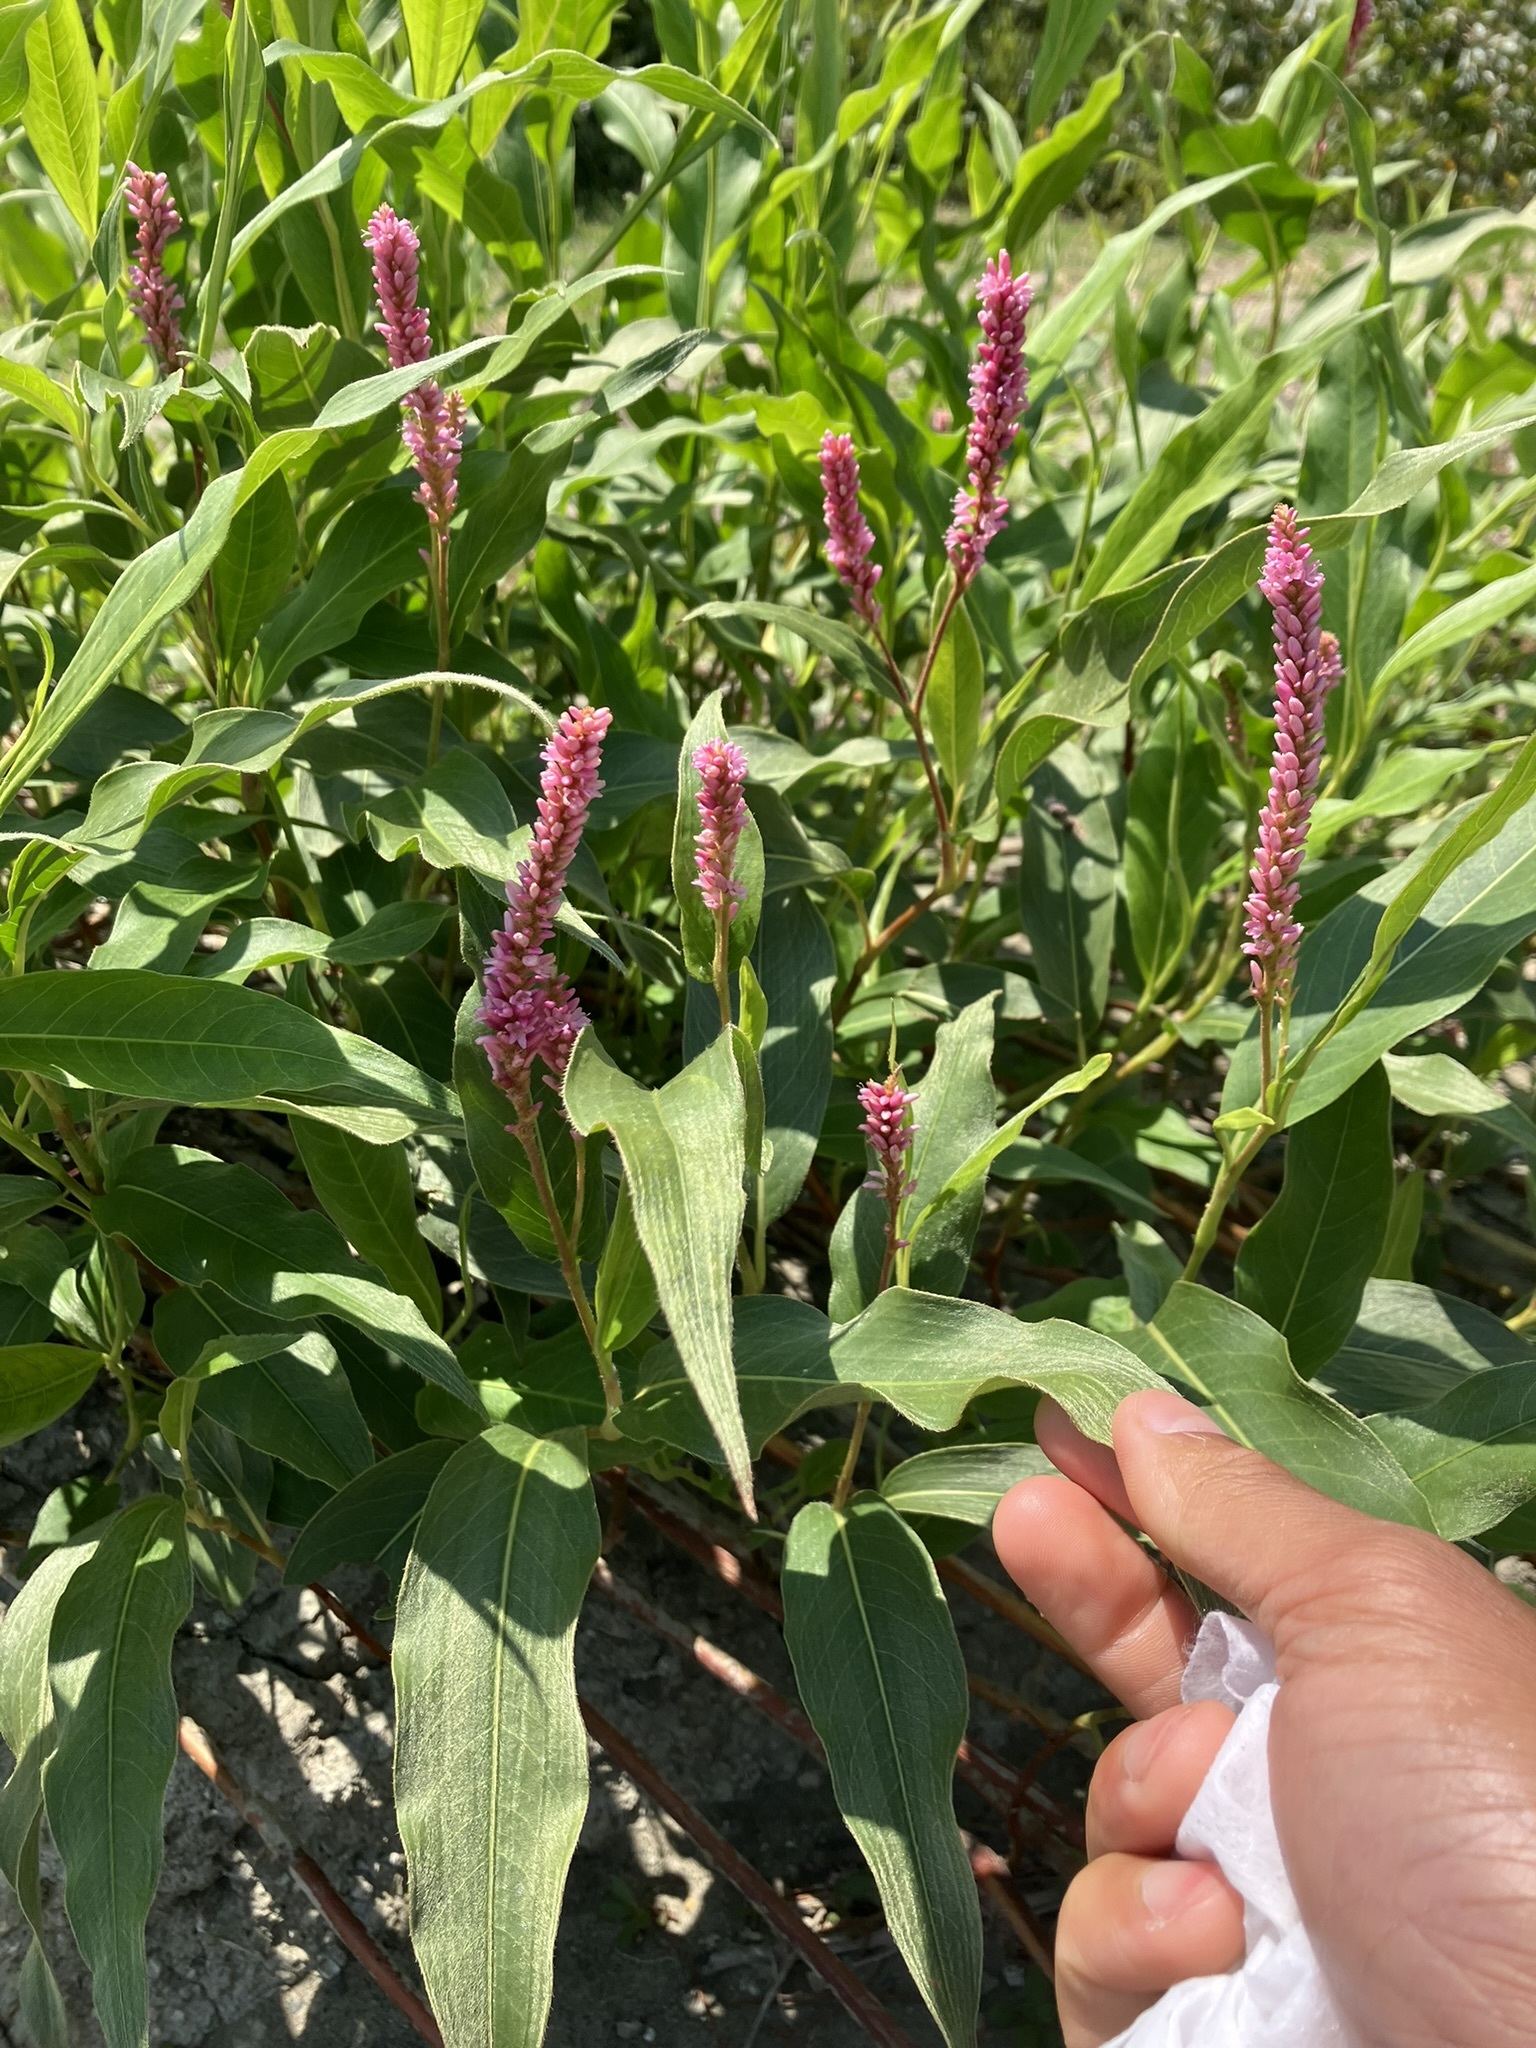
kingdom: Plantae
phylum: Tracheophyta
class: Magnoliopsida
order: Caryophyllales
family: Polygonaceae
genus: Persicaria
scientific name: Persicaria amphibia
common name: Amphibious bistort
